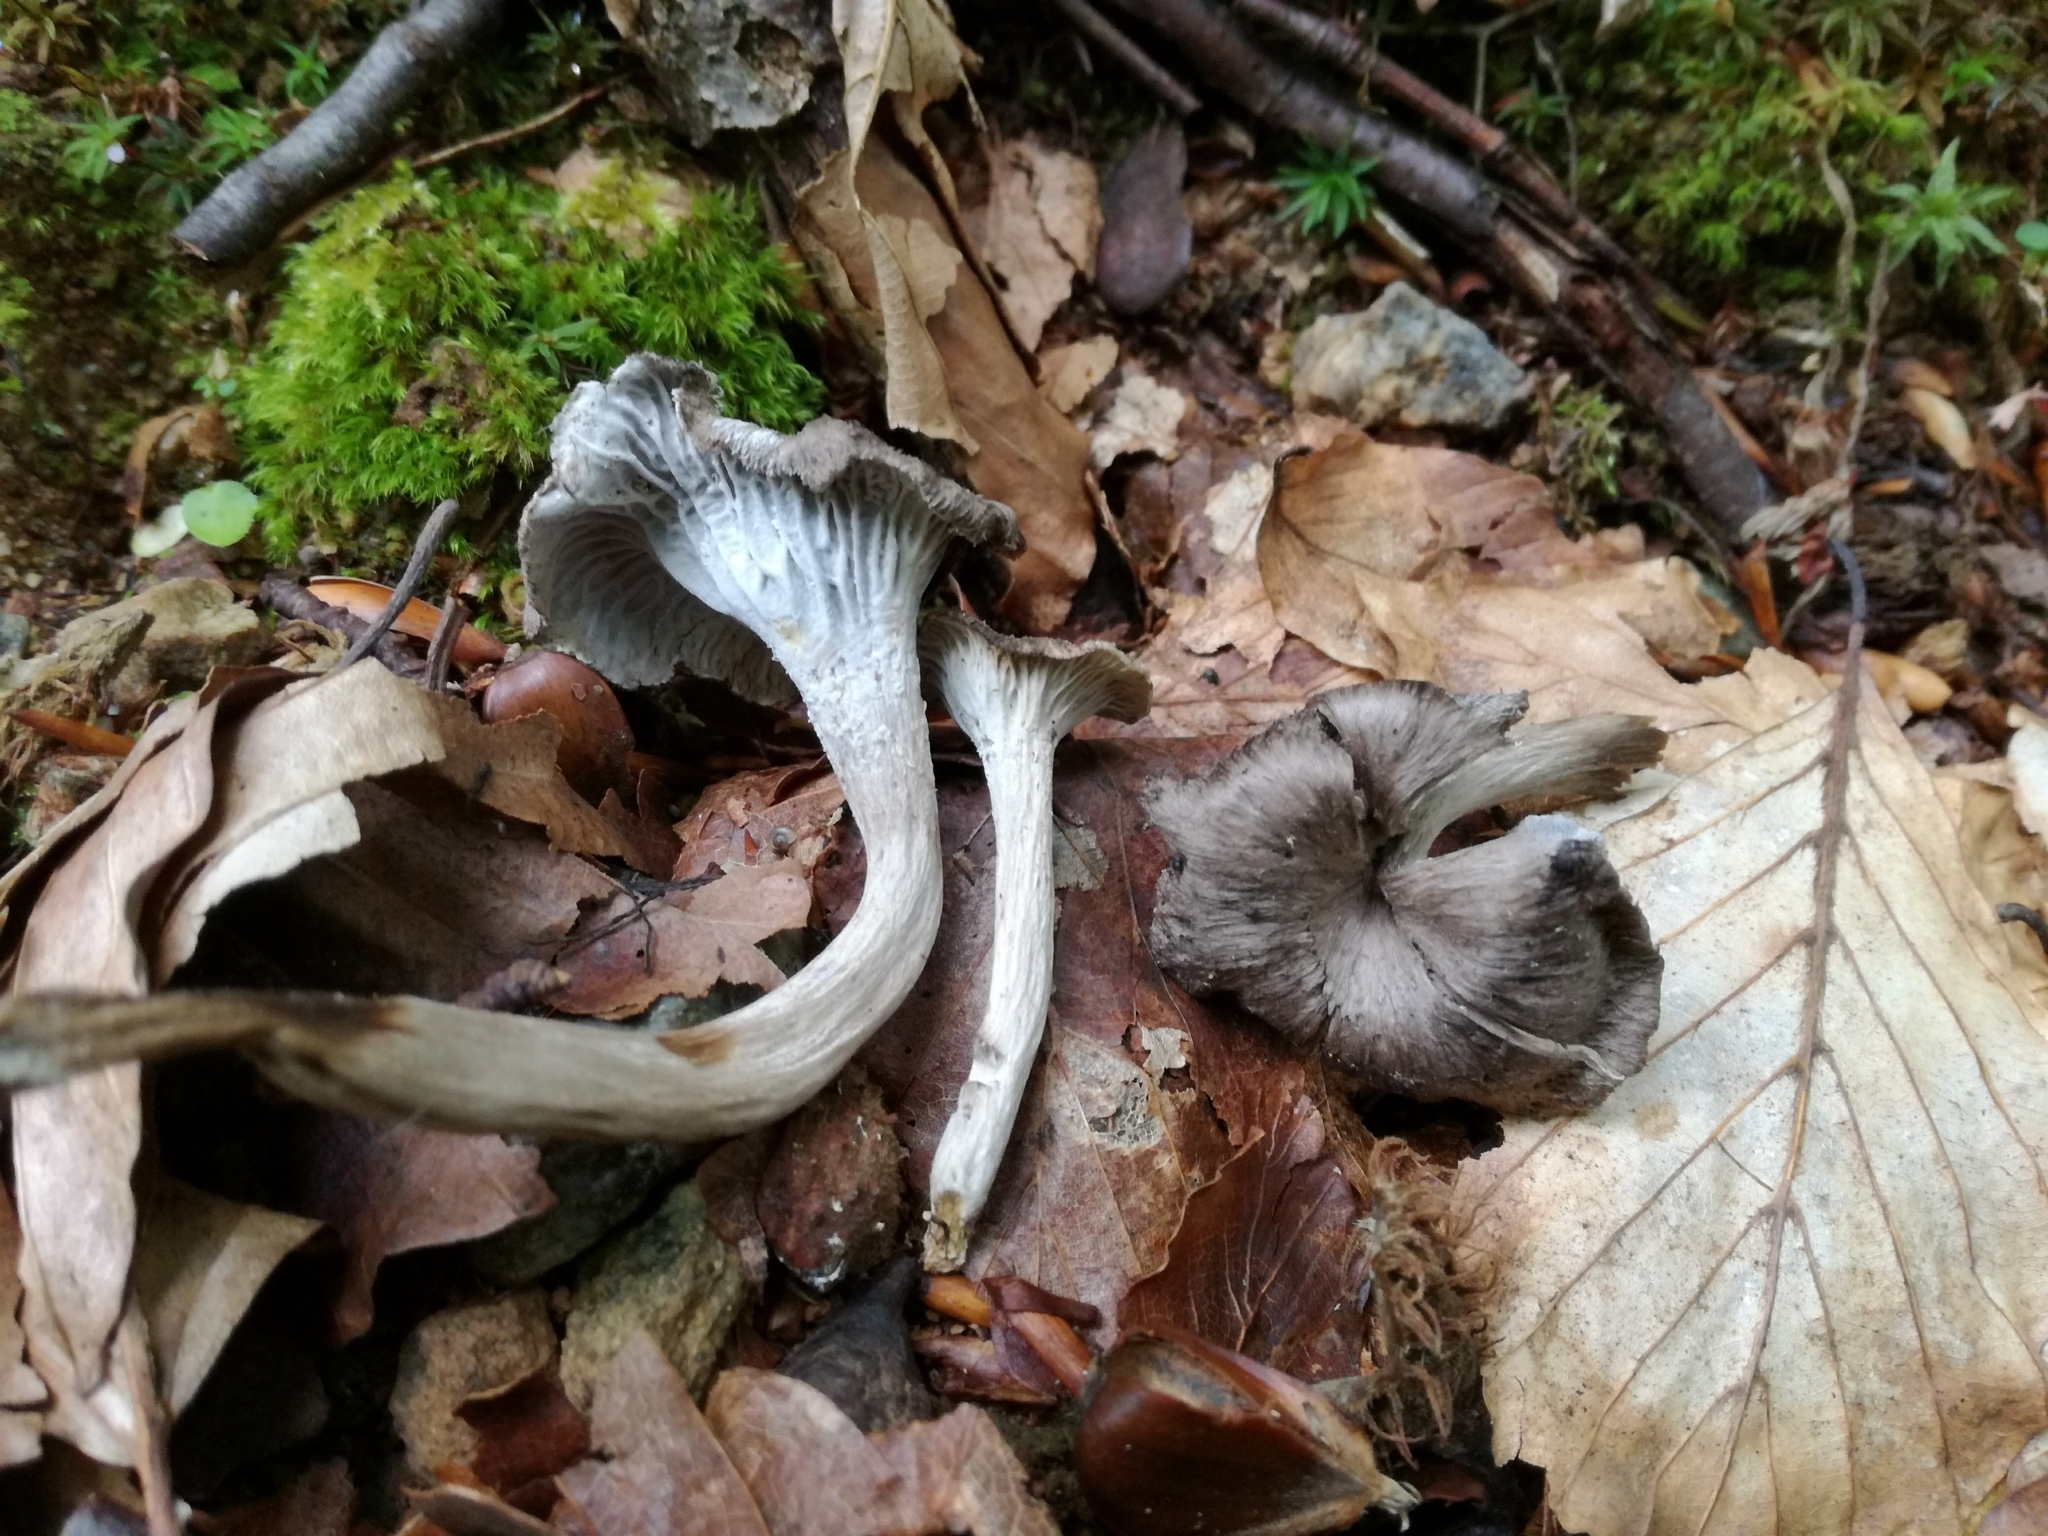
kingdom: Fungi
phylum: Basidiomycota
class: Agaricomycetes
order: Cantharellales
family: Hydnaceae
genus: Pseudocraterellus
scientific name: Pseudocraterellus subundulatus
